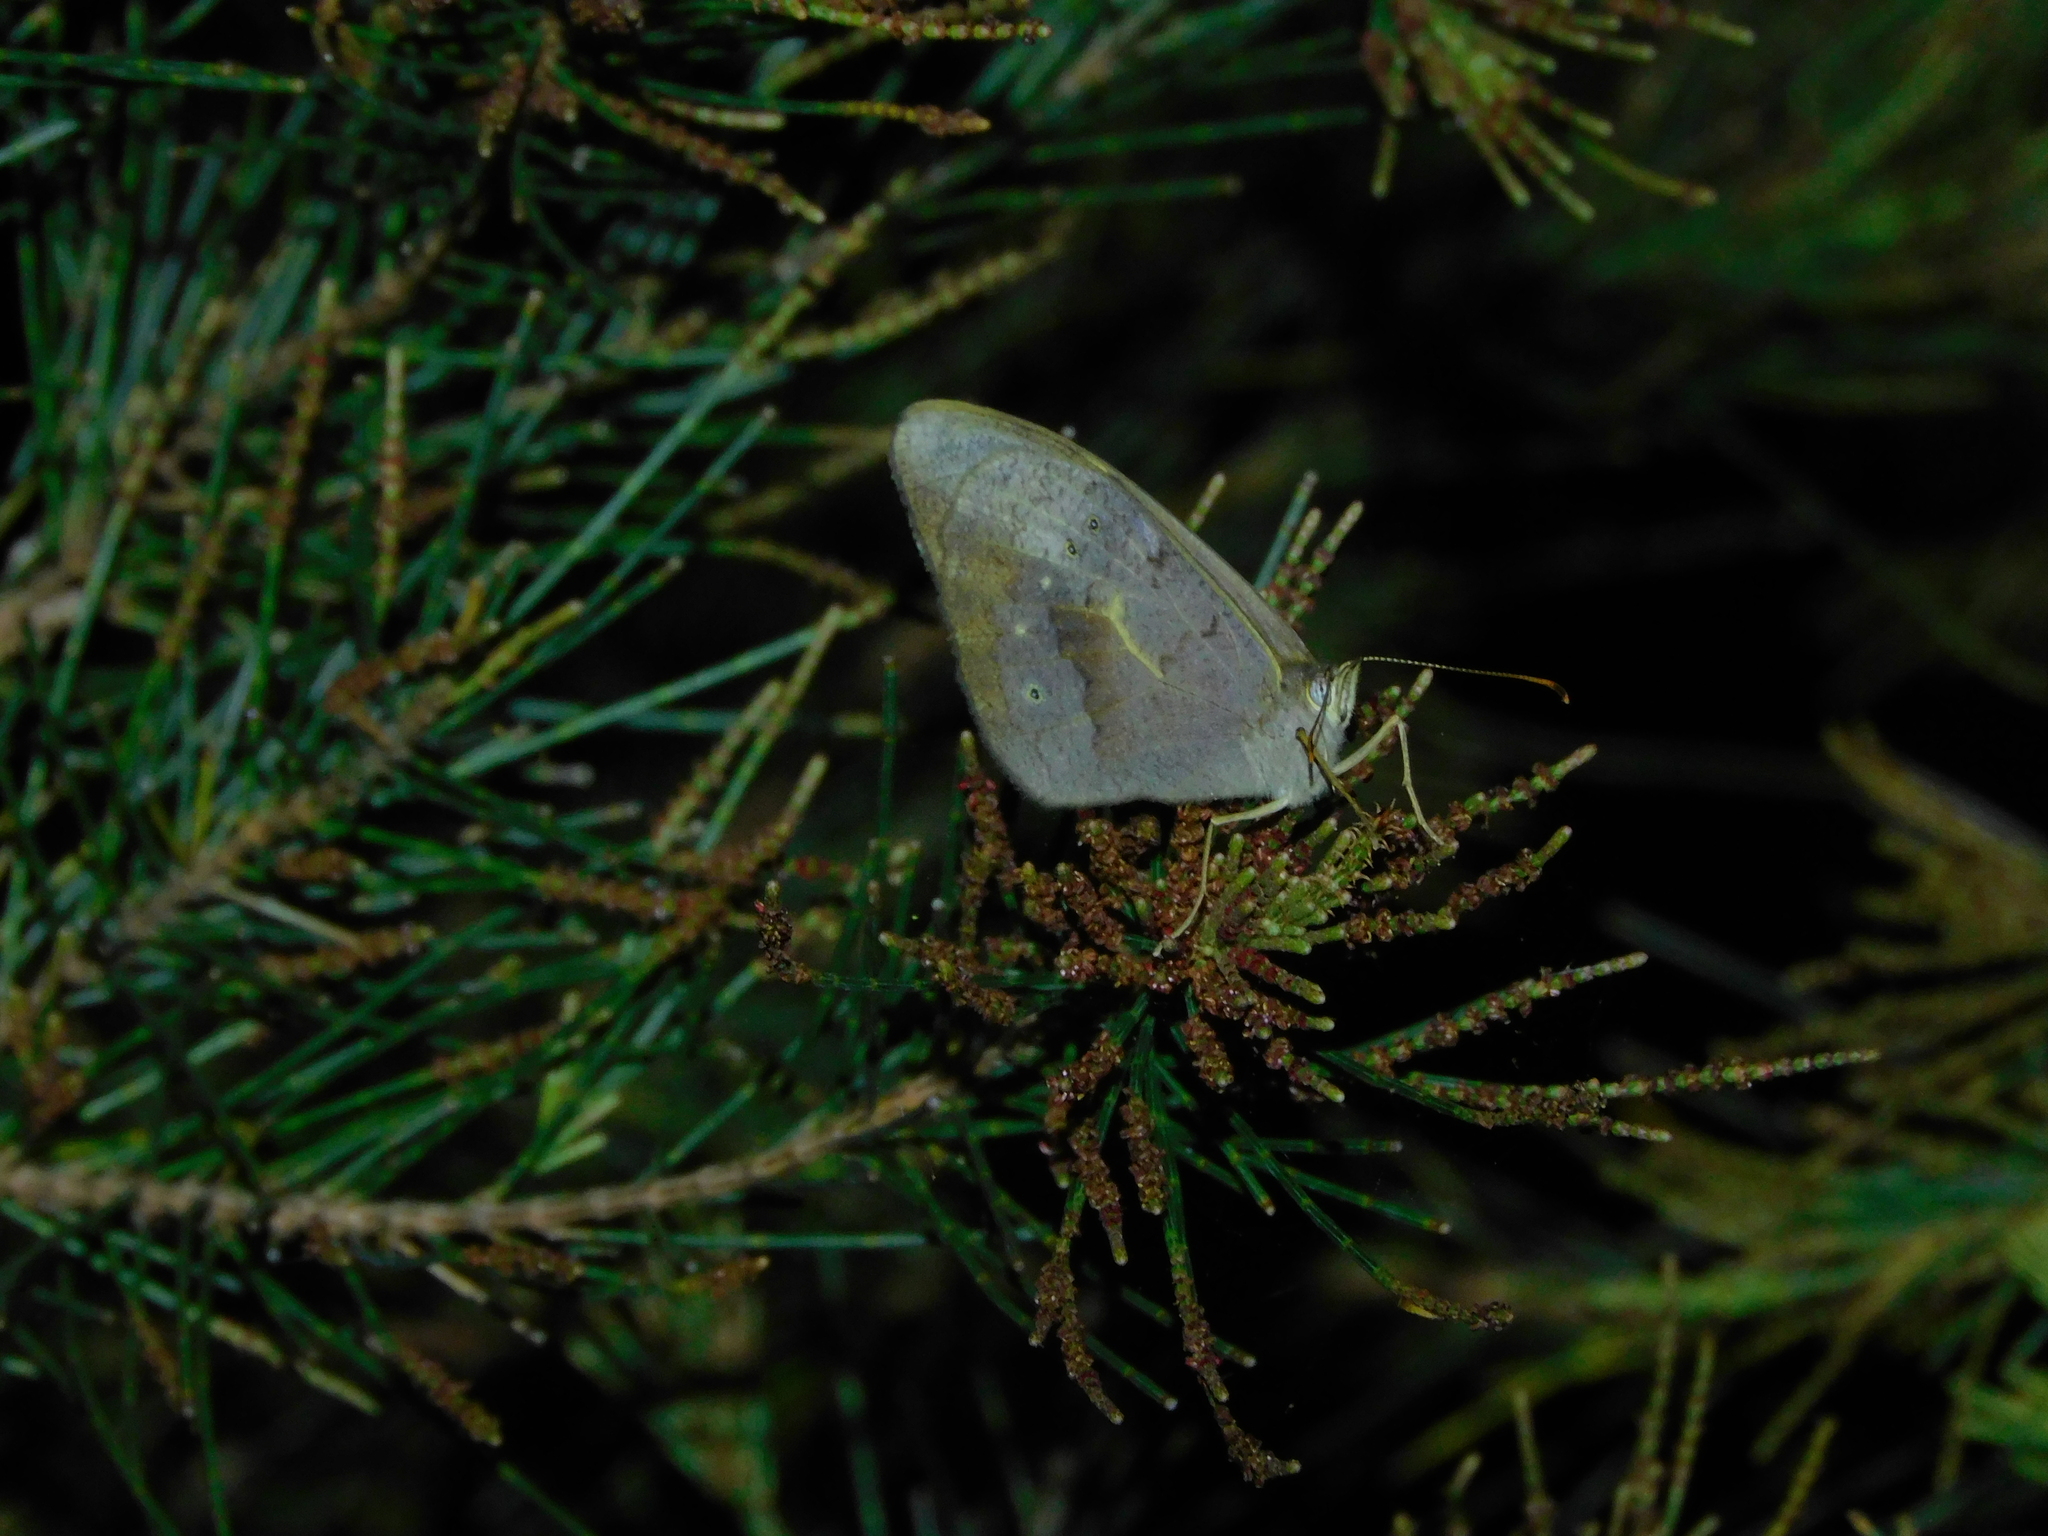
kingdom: Animalia
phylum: Arthropoda
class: Insecta
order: Lepidoptera
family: Nymphalidae
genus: Heteronympha
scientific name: Heteronympha merope
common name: Common brown
